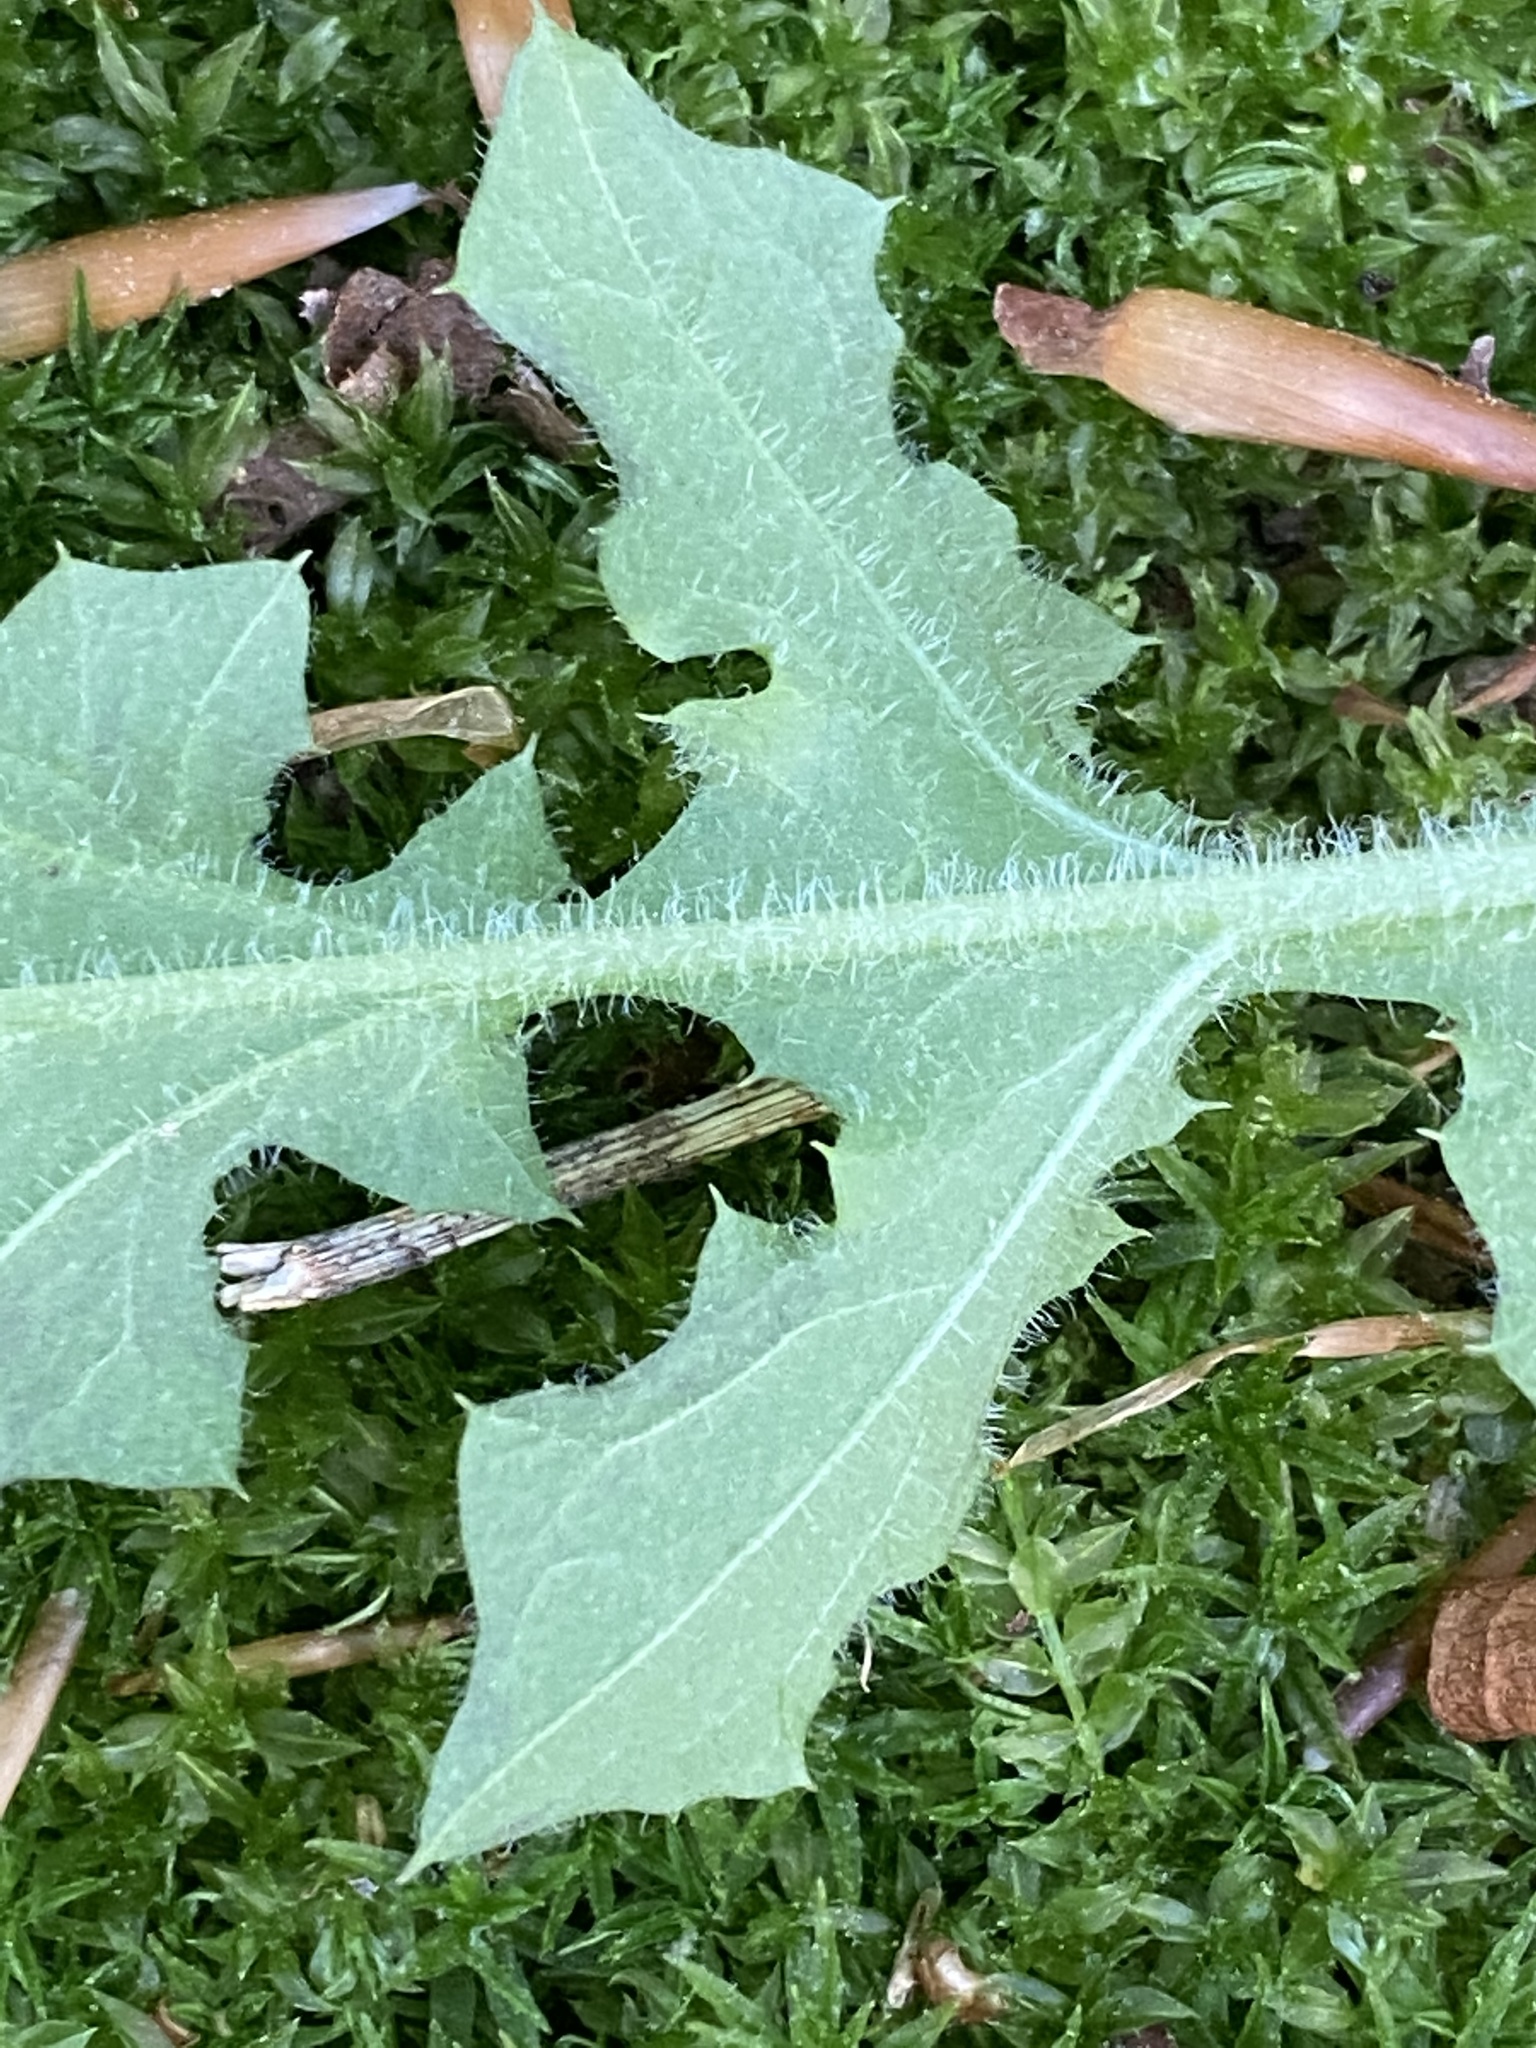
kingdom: Plantae
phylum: Tracheophyta
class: Magnoliopsida
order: Asterales
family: Asteraceae
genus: Youngia
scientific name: Youngia japonica
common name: Oriental false hawksbeard
